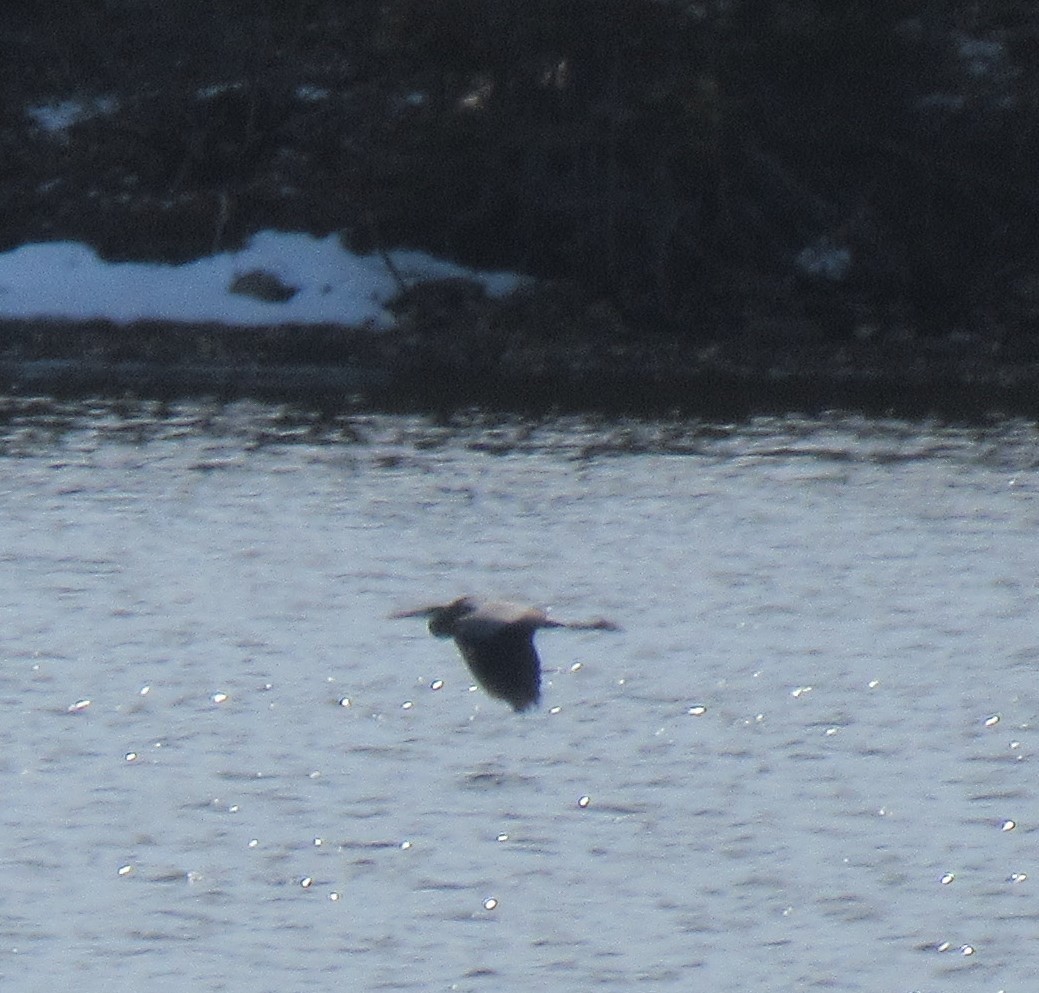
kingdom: Animalia
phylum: Chordata
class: Aves
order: Pelecaniformes
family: Ardeidae
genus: Ardea
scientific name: Ardea herodias
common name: Great blue heron
